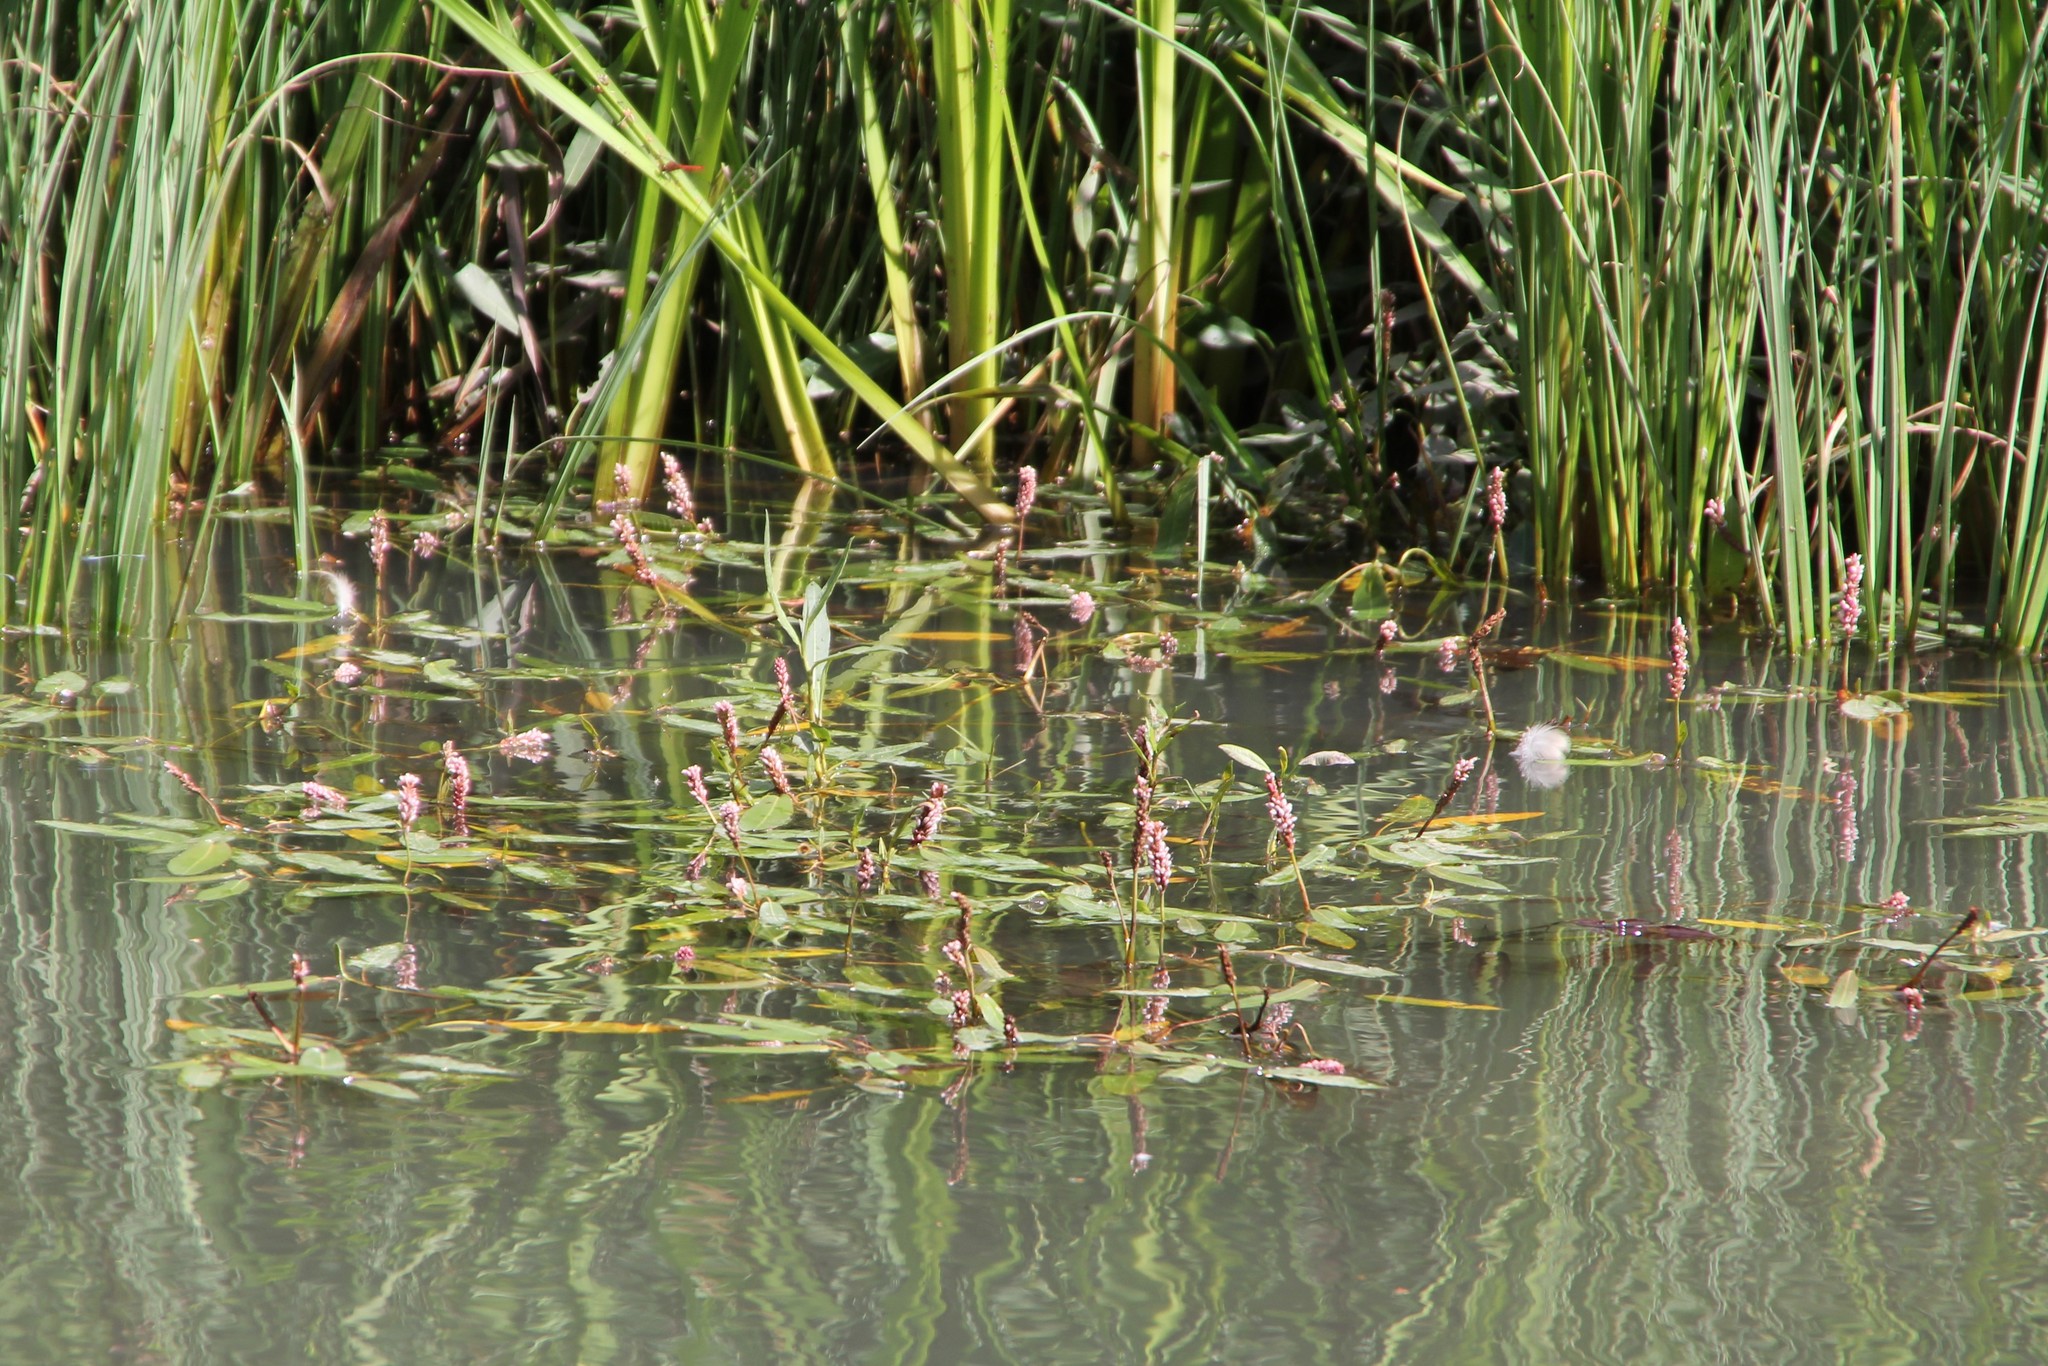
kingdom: Plantae
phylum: Tracheophyta
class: Magnoliopsida
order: Caryophyllales
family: Polygonaceae
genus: Persicaria
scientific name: Persicaria amphibia
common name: Amphibious bistort
